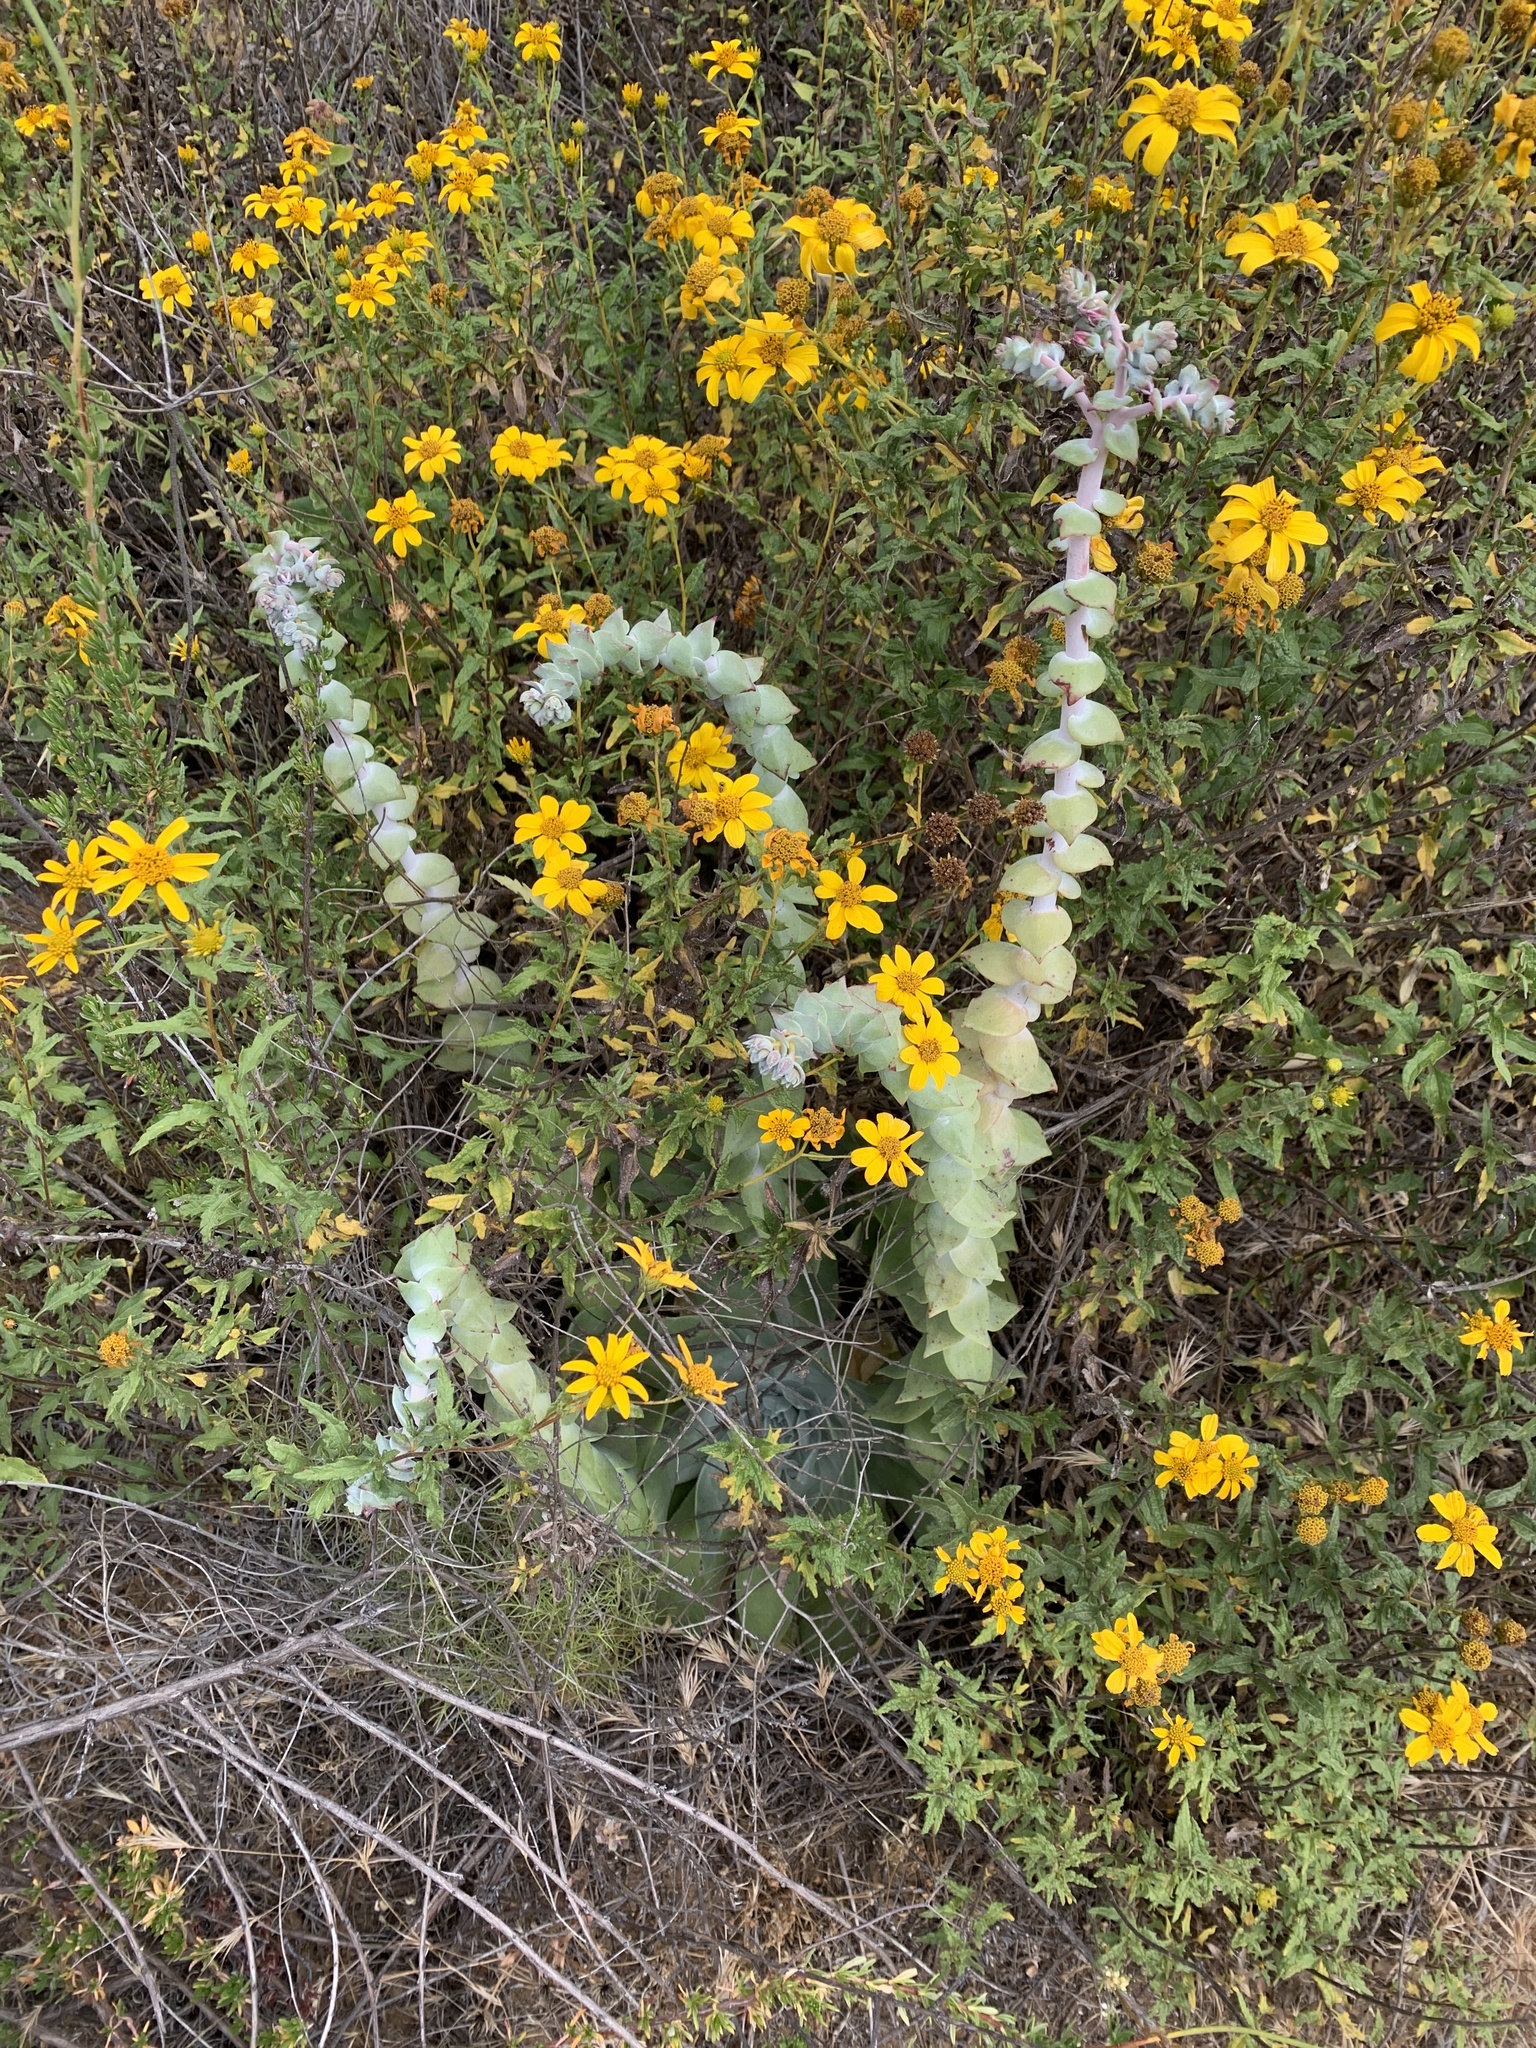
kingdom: Plantae
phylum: Tracheophyta
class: Magnoliopsida
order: Saxifragales
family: Crassulaceae
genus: Dudleya
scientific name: Dudleya pulverulenta
